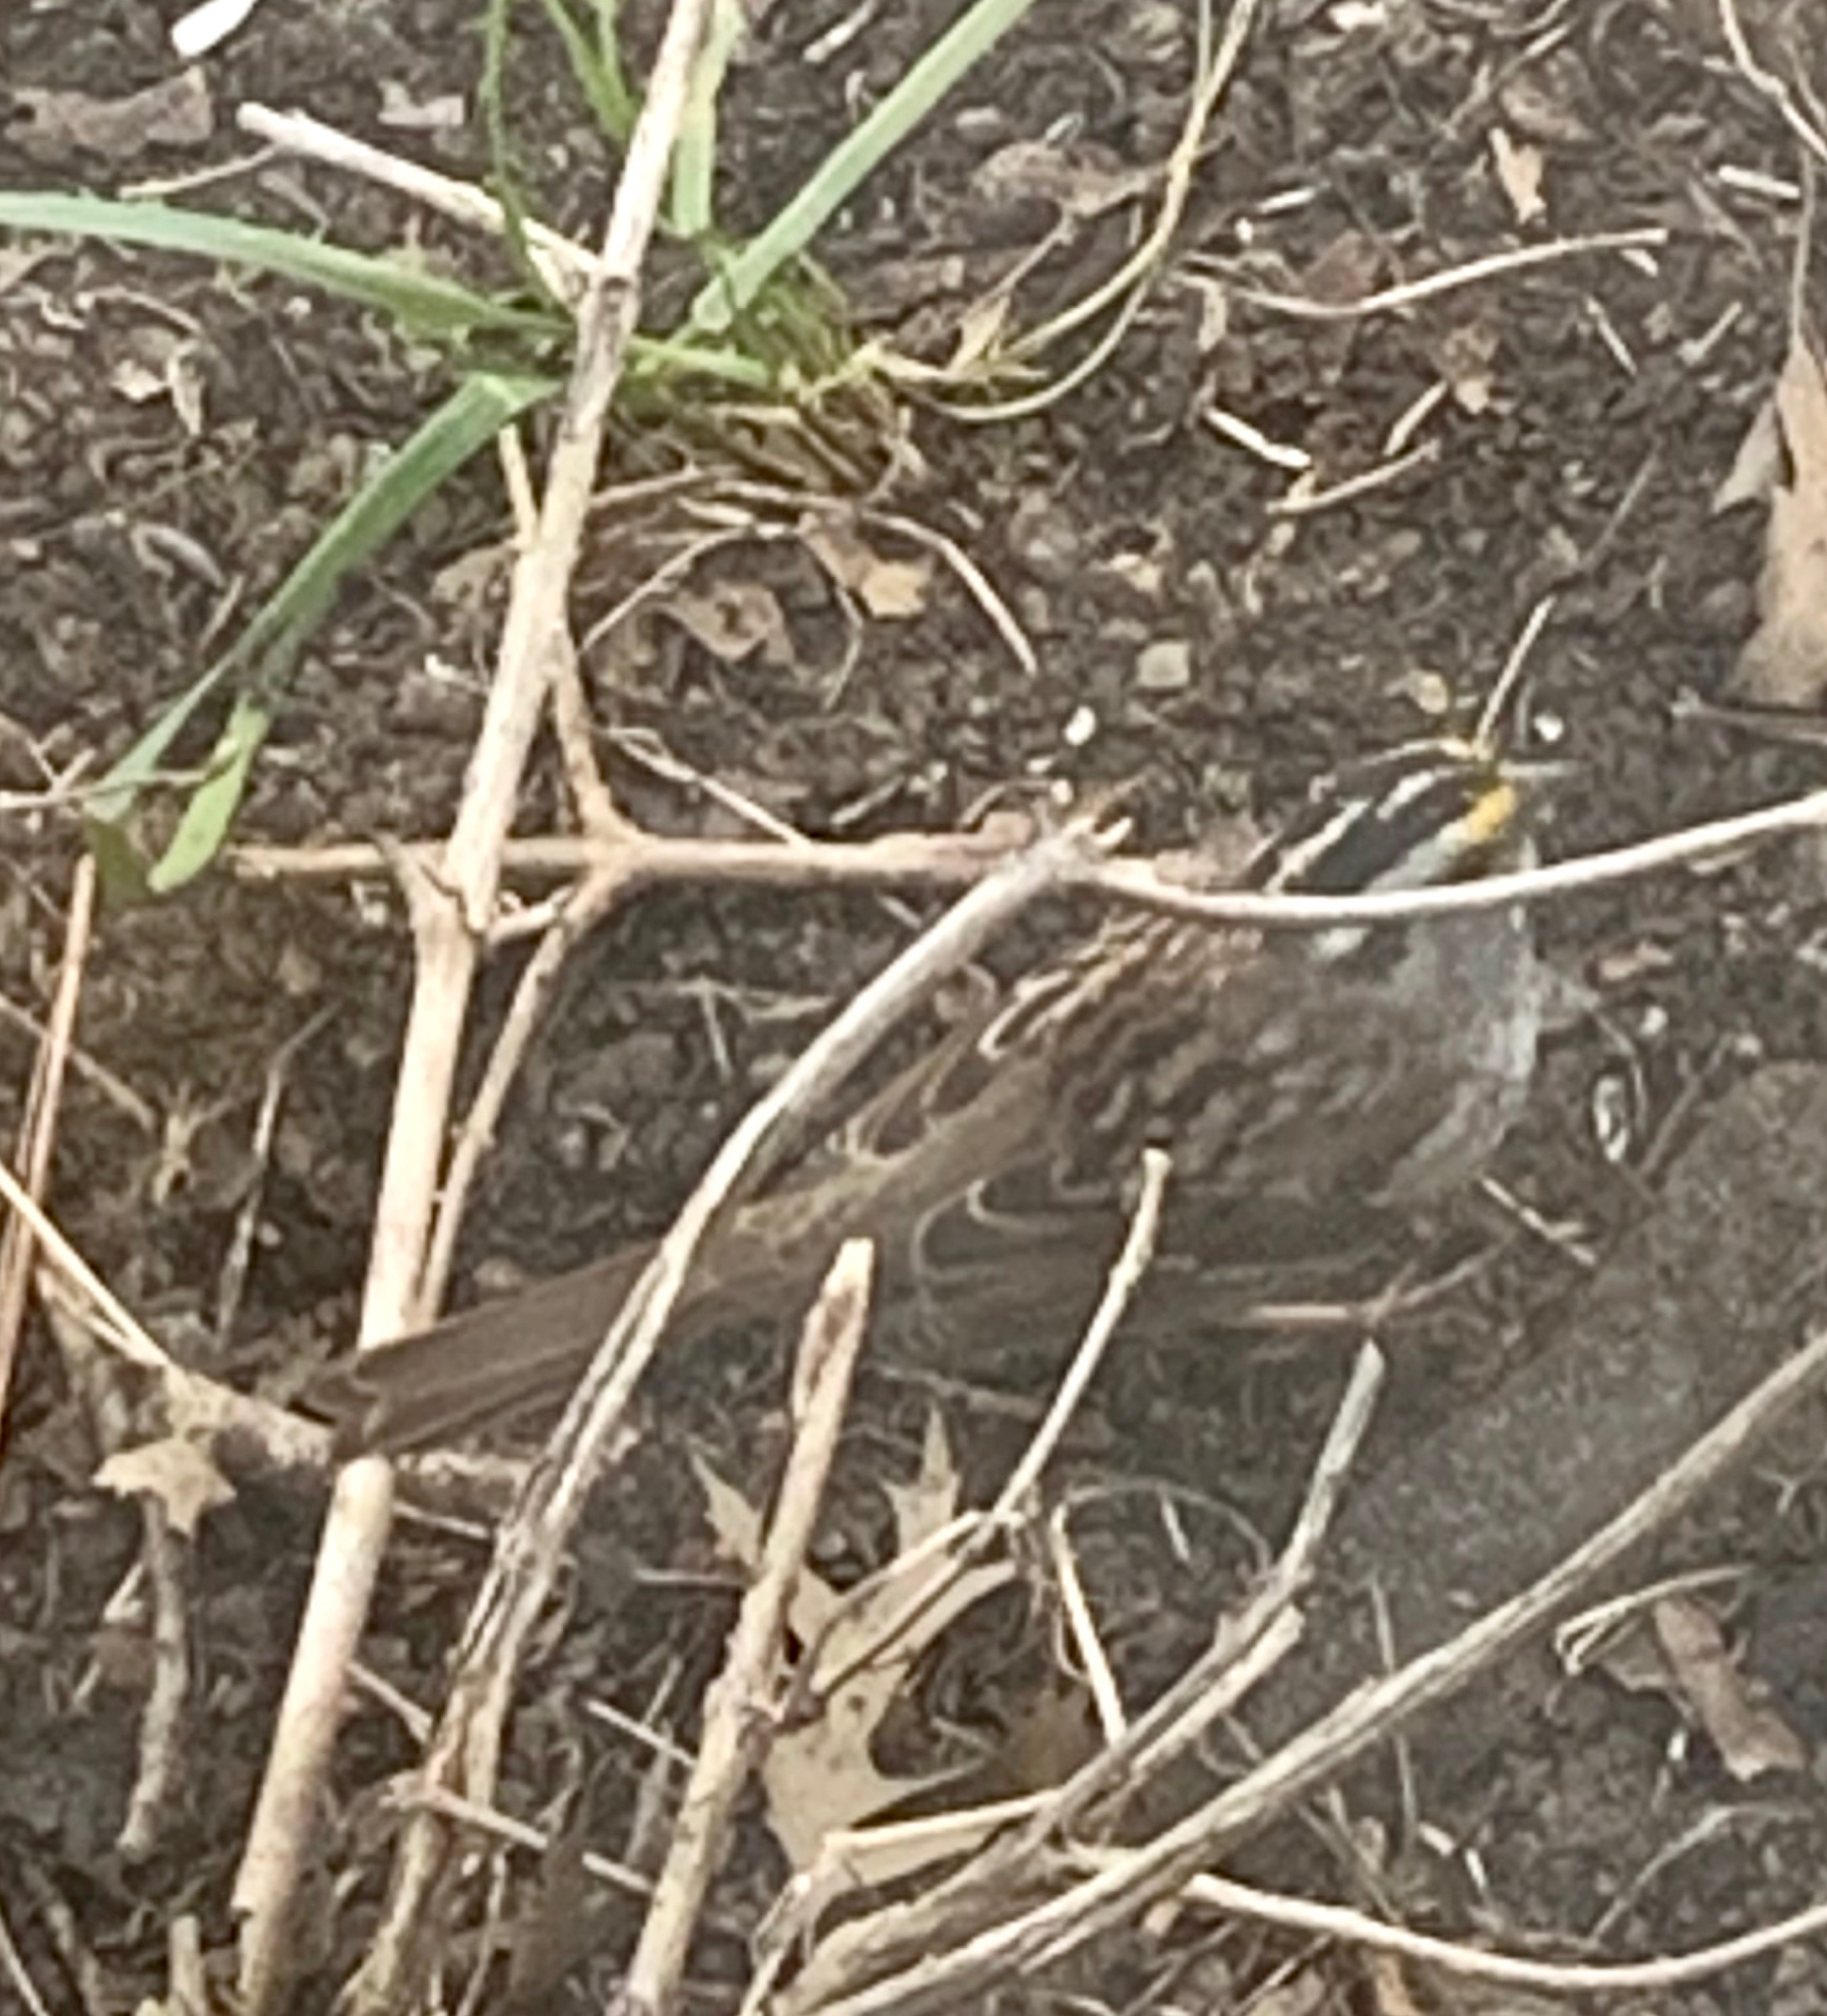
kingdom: Animalia
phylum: Chordata
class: Aves
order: Passeriformes
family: Passerellidae
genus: Zonotrichia
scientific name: Zonotrichia albicollis
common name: White-throated sparrow
